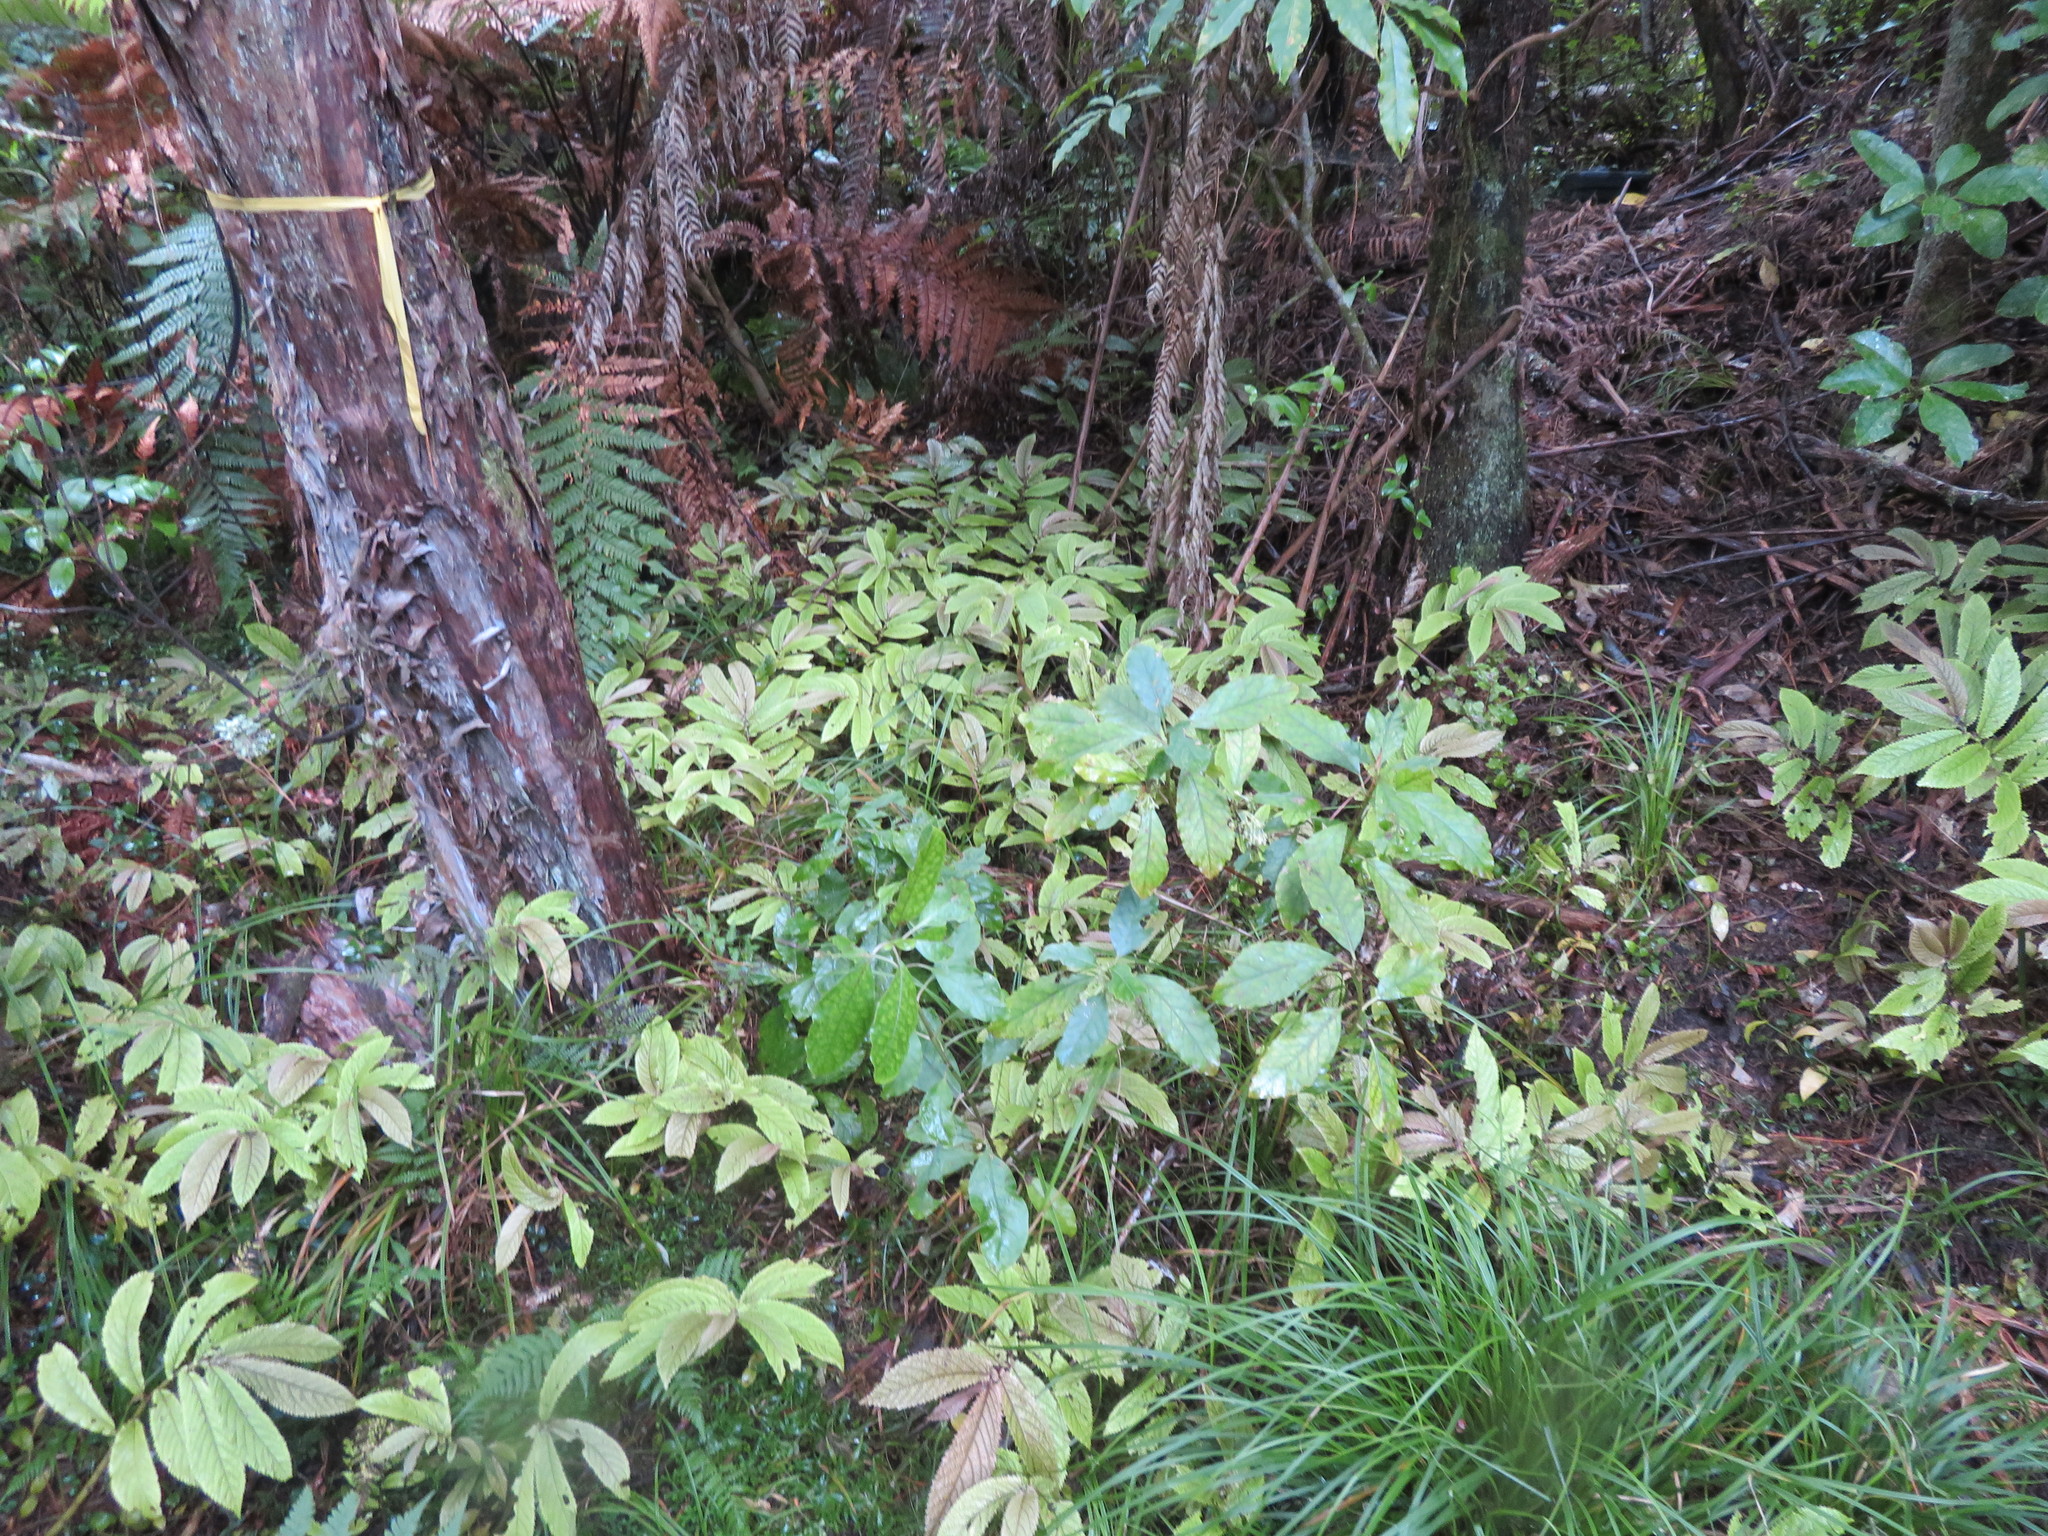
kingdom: Plantae
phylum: Tracheophyta
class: Magnoliopsida
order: Gentianales
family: Rubiaceae
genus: Coprosma
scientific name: Coprosma autumnalis
